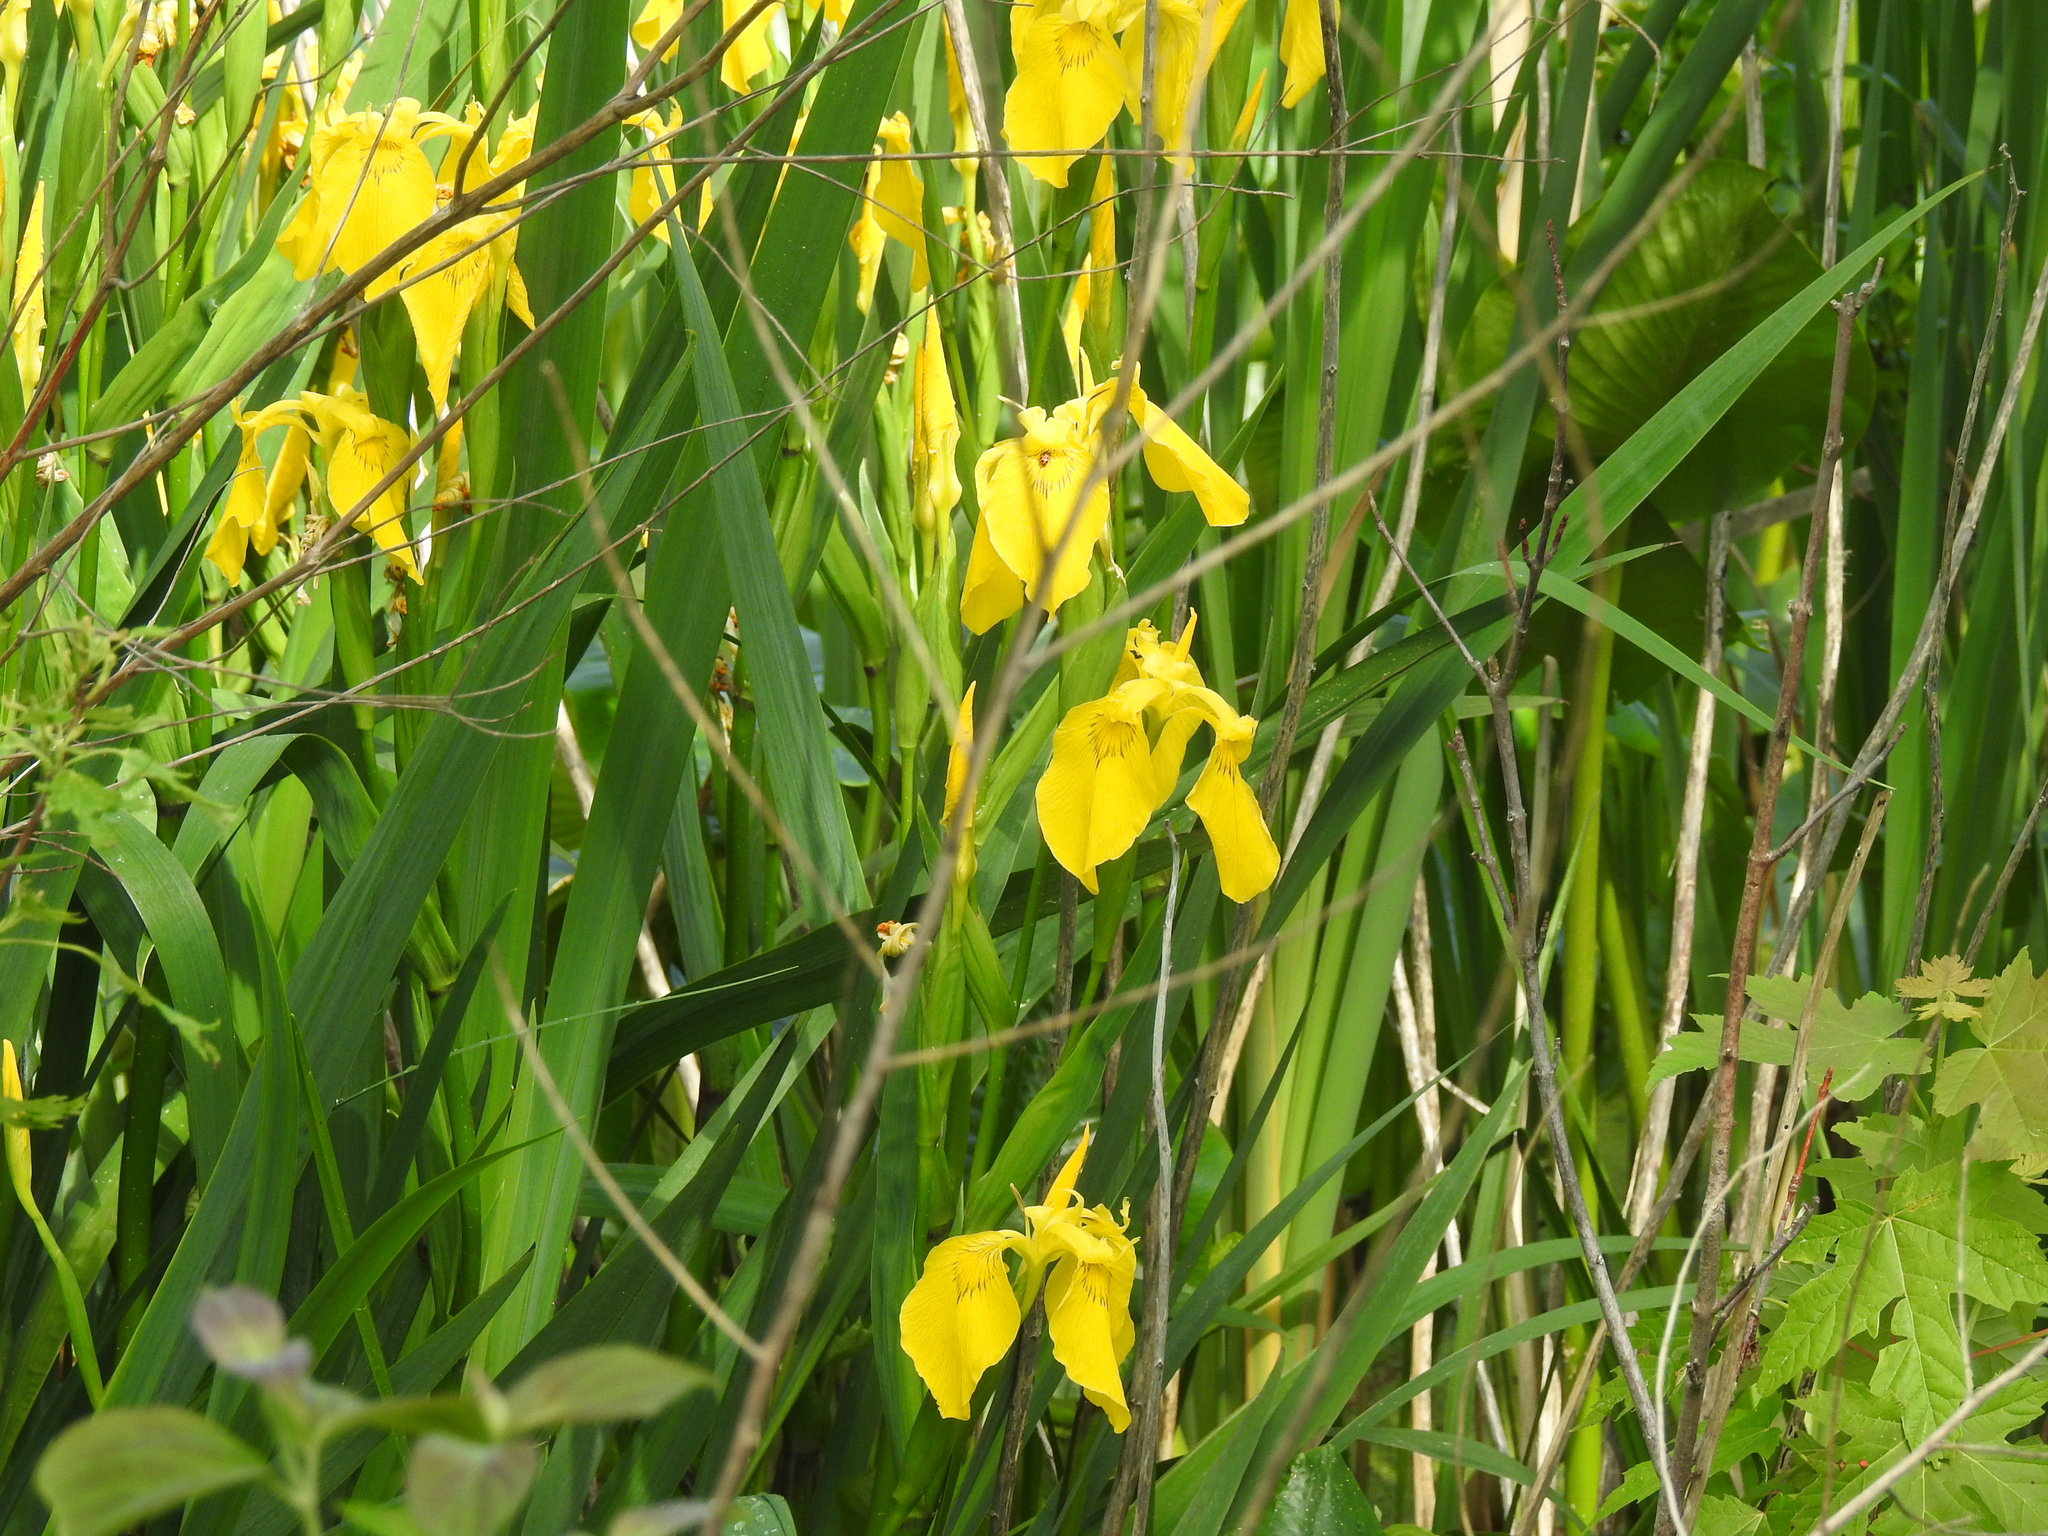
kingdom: Plantae
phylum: Tracheophyta
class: Liliopsida
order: Asparagales
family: Iridaceae
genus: Iris
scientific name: Iris pseudacorus
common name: Yellow flag
